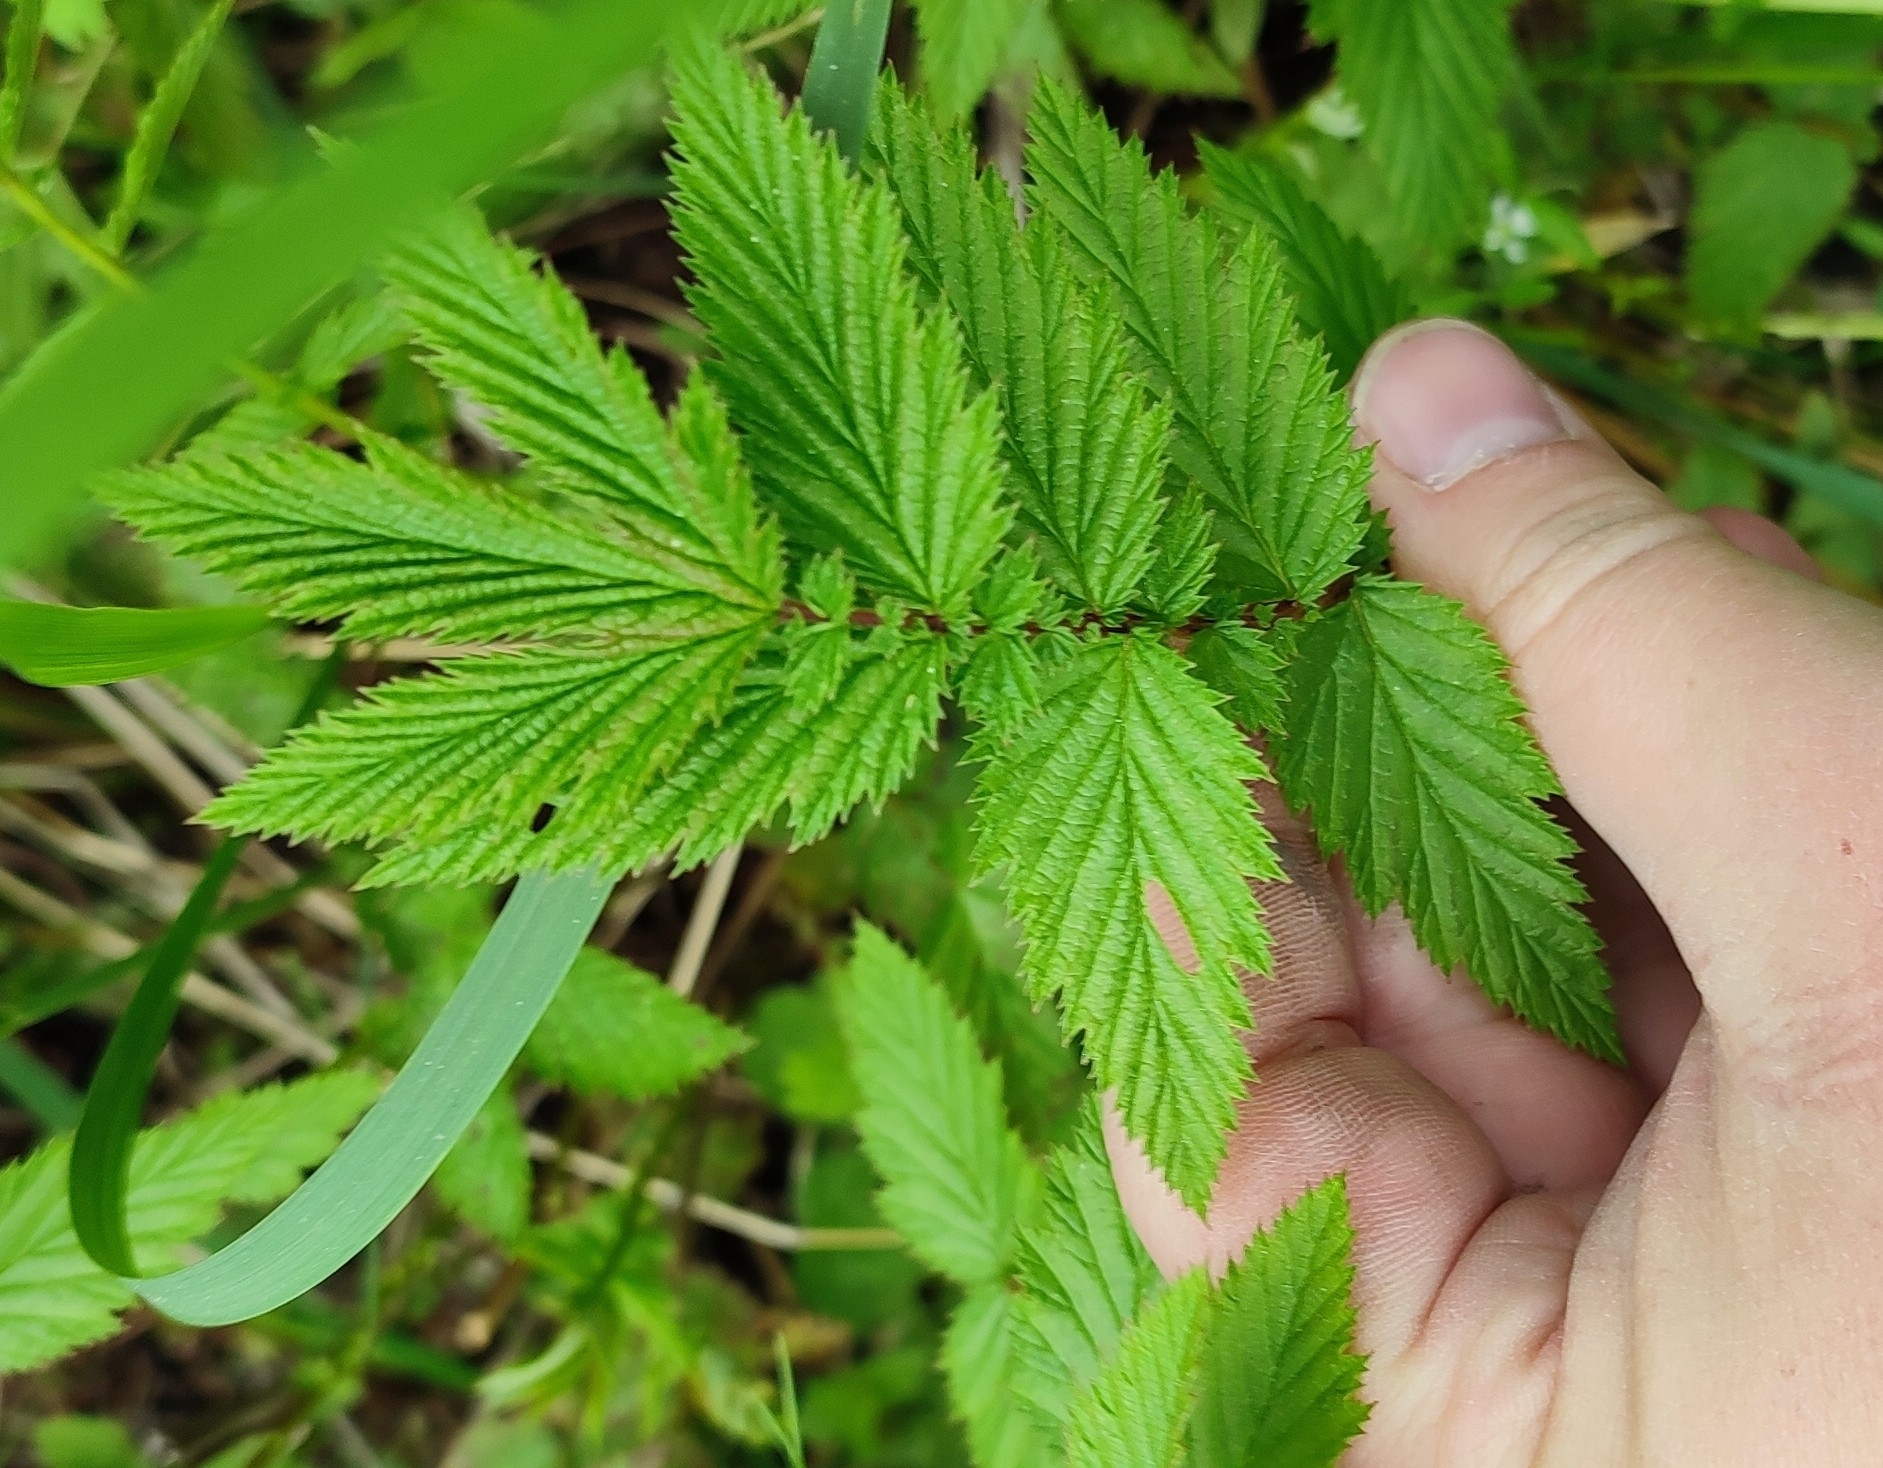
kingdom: Plantae
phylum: Tracheophyta
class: Magnoliopsida
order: Rosales
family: Rosaceae
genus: Filipendula
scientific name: Filipendula ulmaria
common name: Meadowsweet
